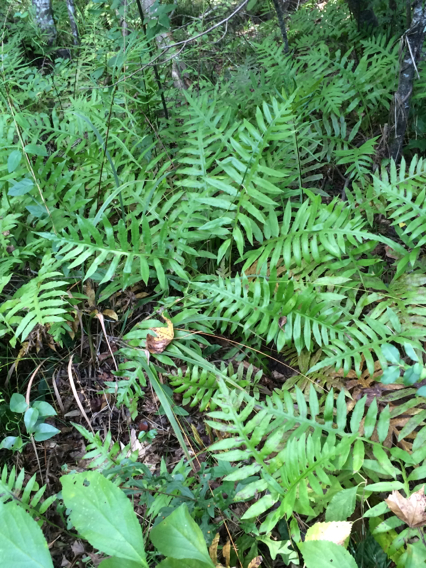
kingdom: Plantae
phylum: Tracheophyta
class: Polypodiopsida
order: Polypodiales
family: Blechnaceae
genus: Lorinseria
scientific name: Lorinseria areolata
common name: Dwarf chain fern
